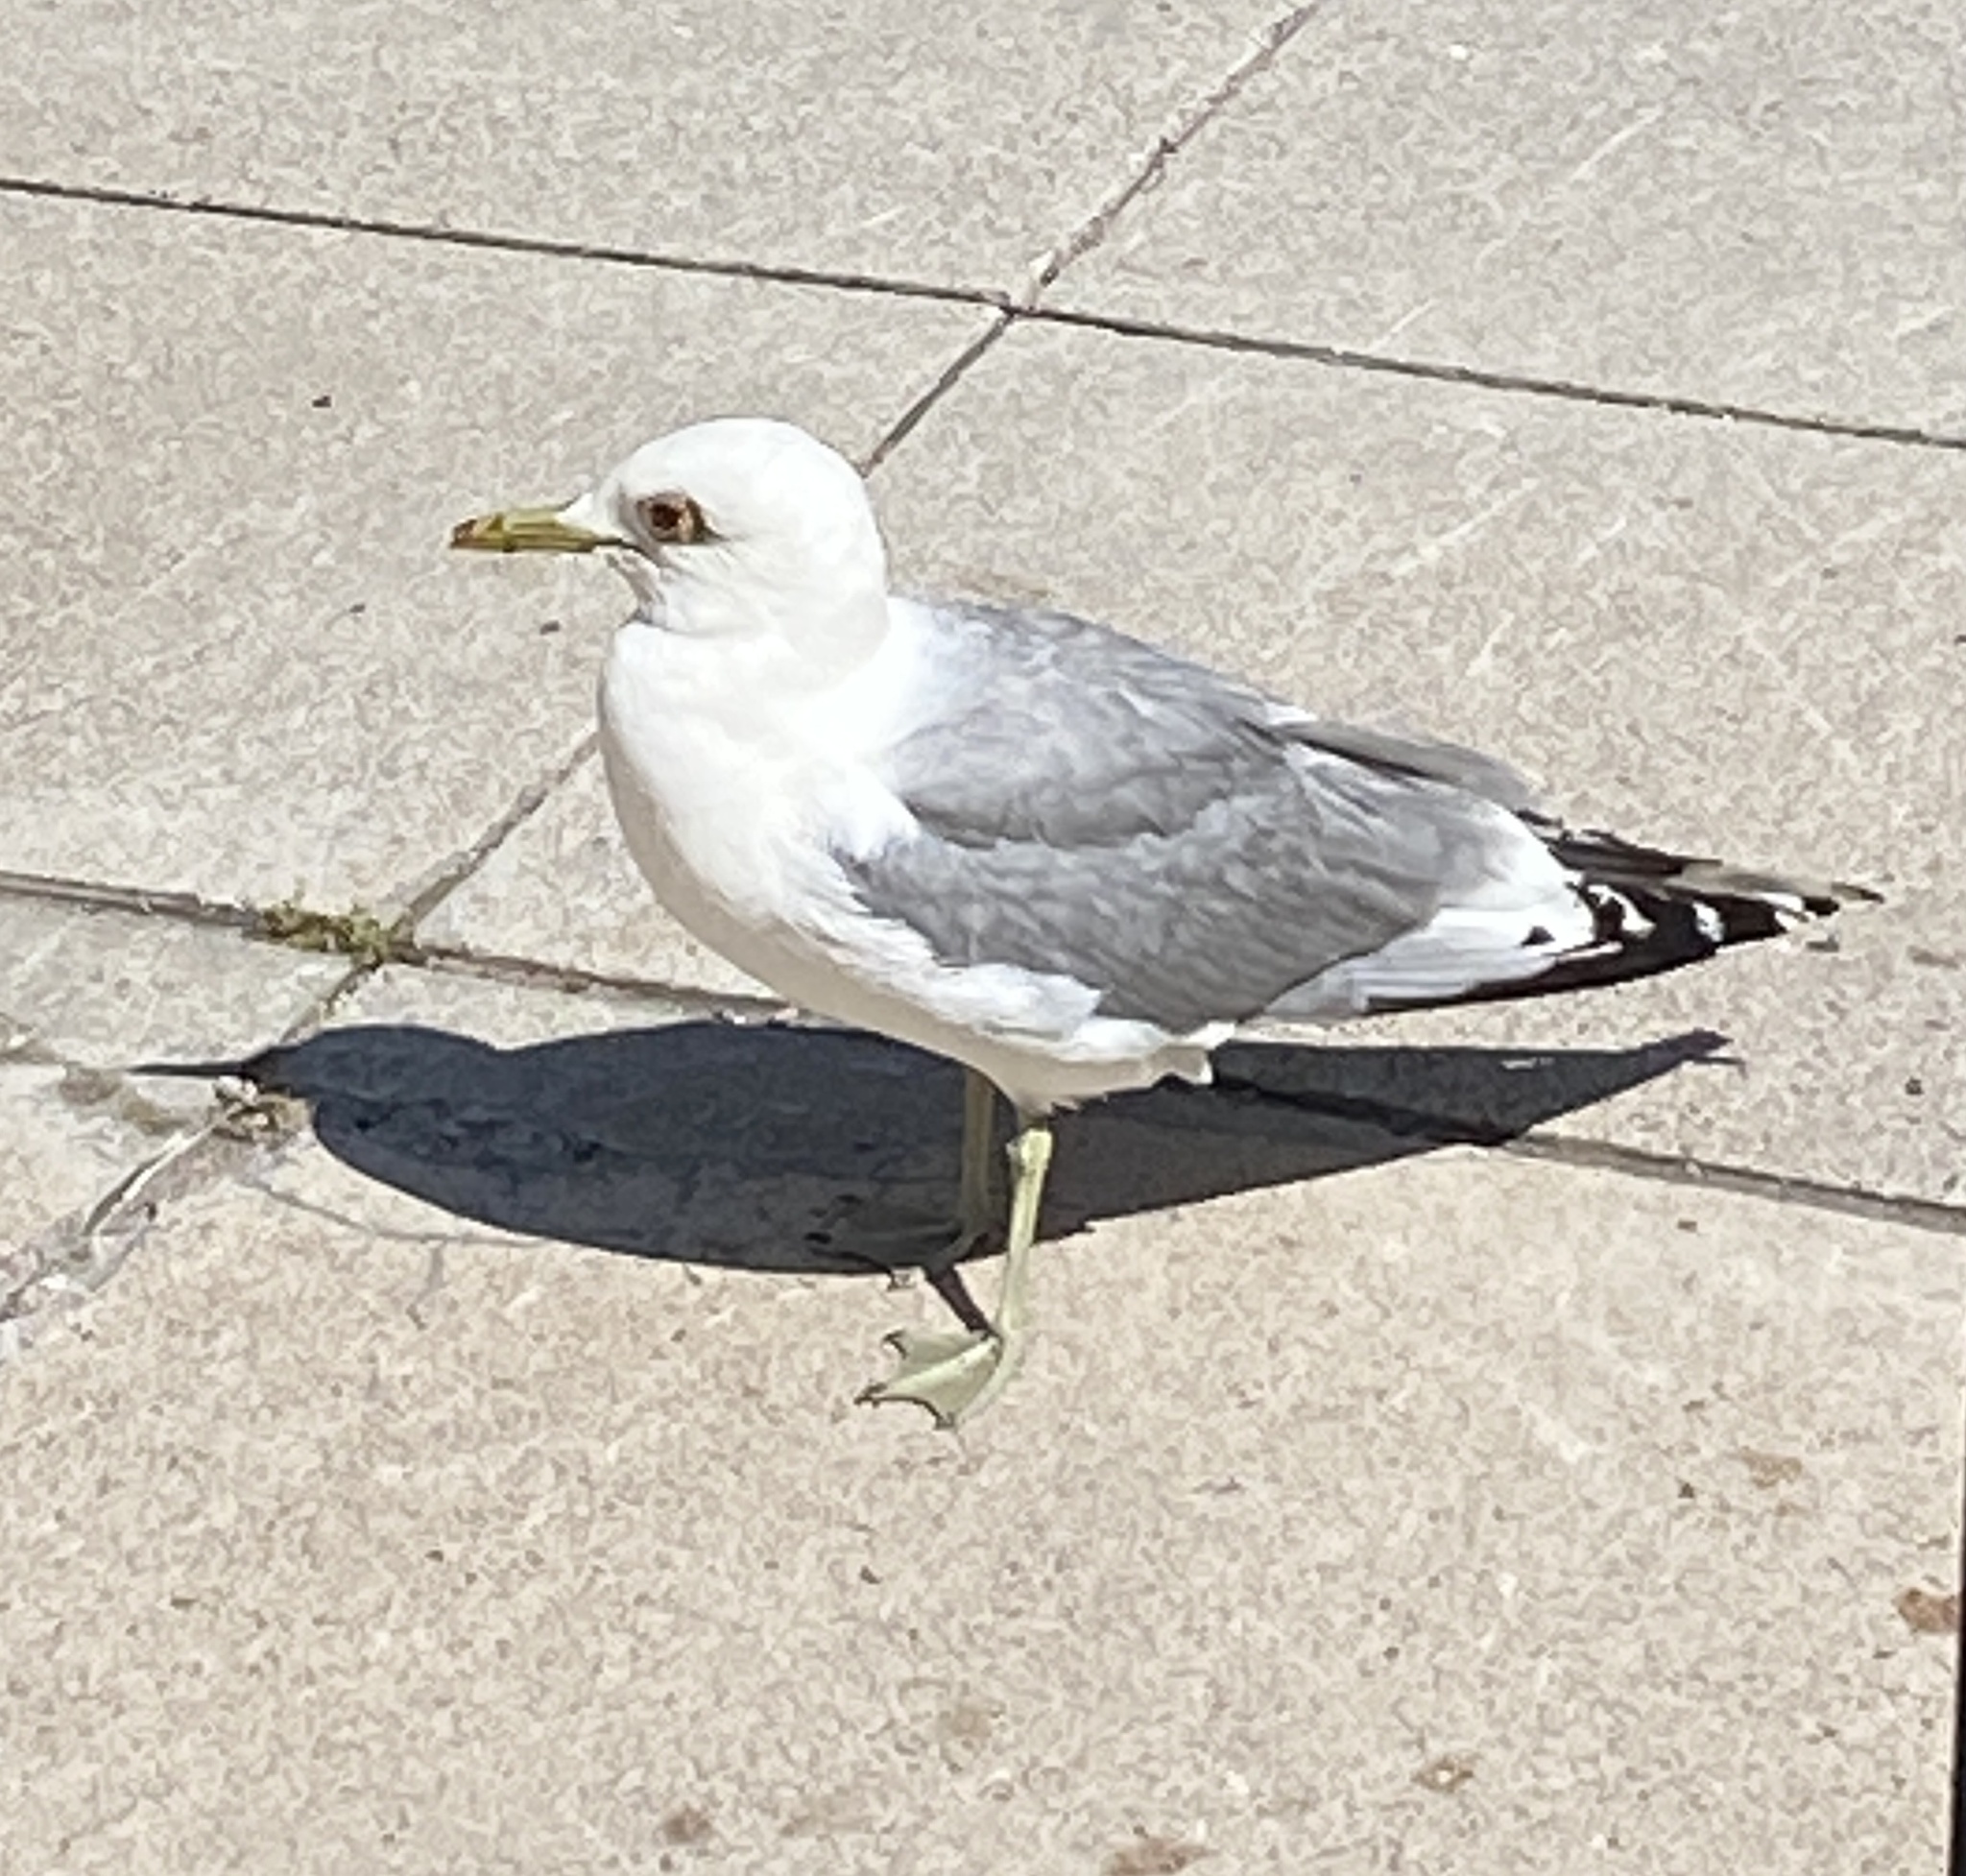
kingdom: Animalia
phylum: Chordata
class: Aves
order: Charadriiformes
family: Laridae
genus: Larus
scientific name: Larus canus
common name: Mew gull
